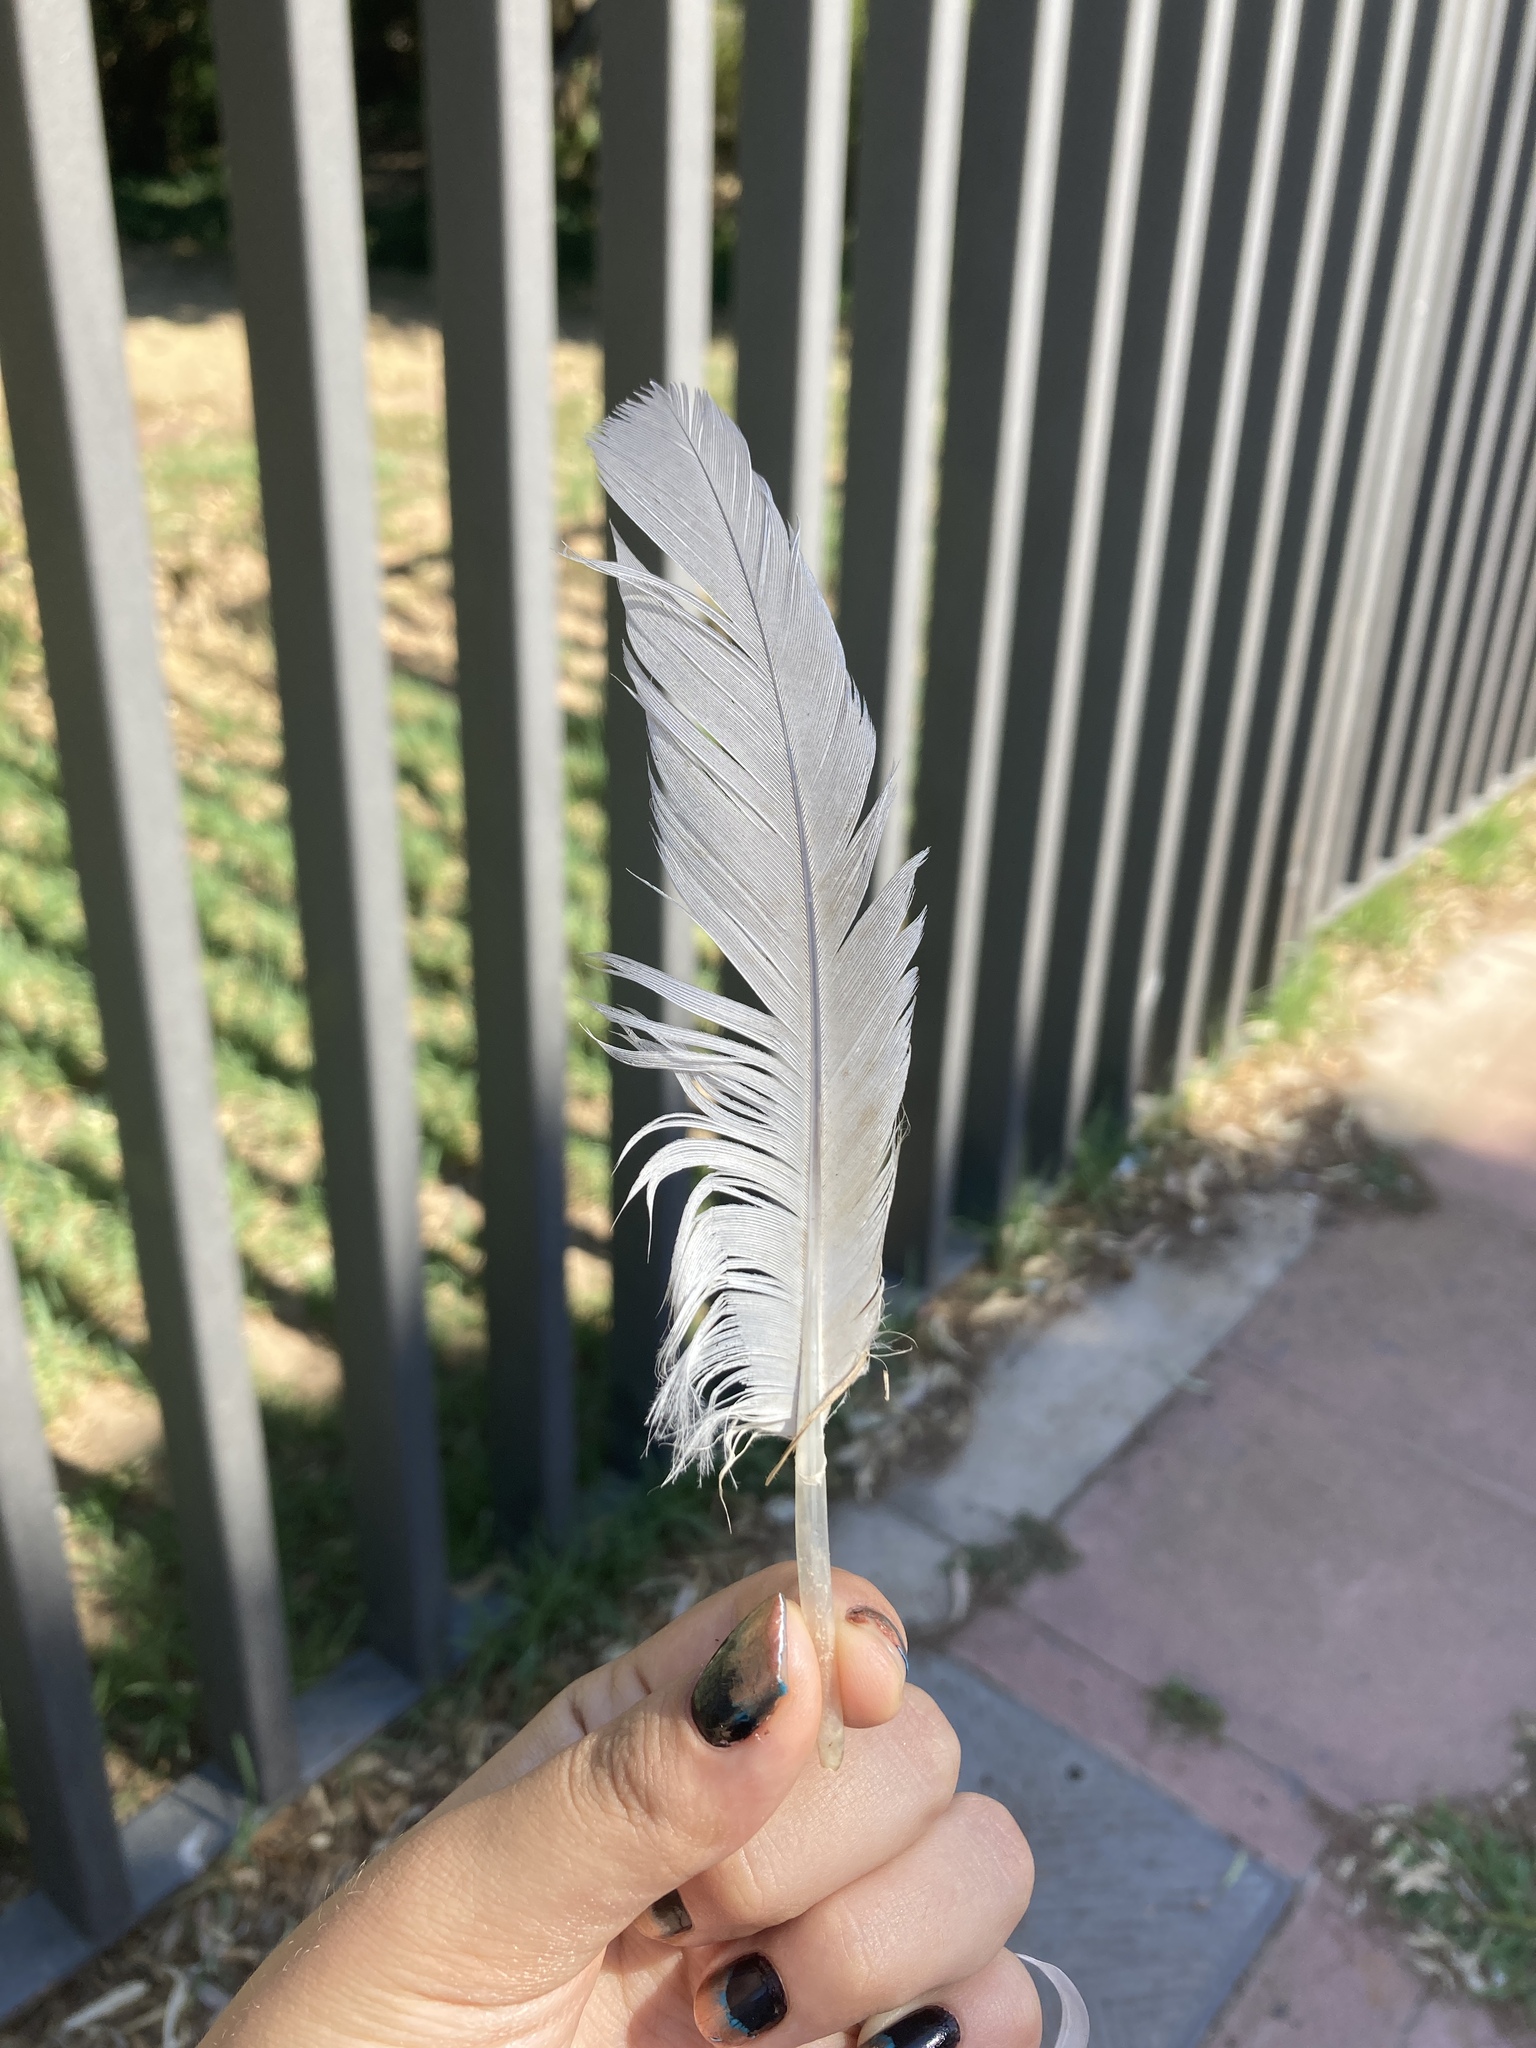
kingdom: Animalia
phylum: Chordata
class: Aves
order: Charadriiformes
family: Laridae
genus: Larus
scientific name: Larus michahellis
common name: Yellow-legged gull
